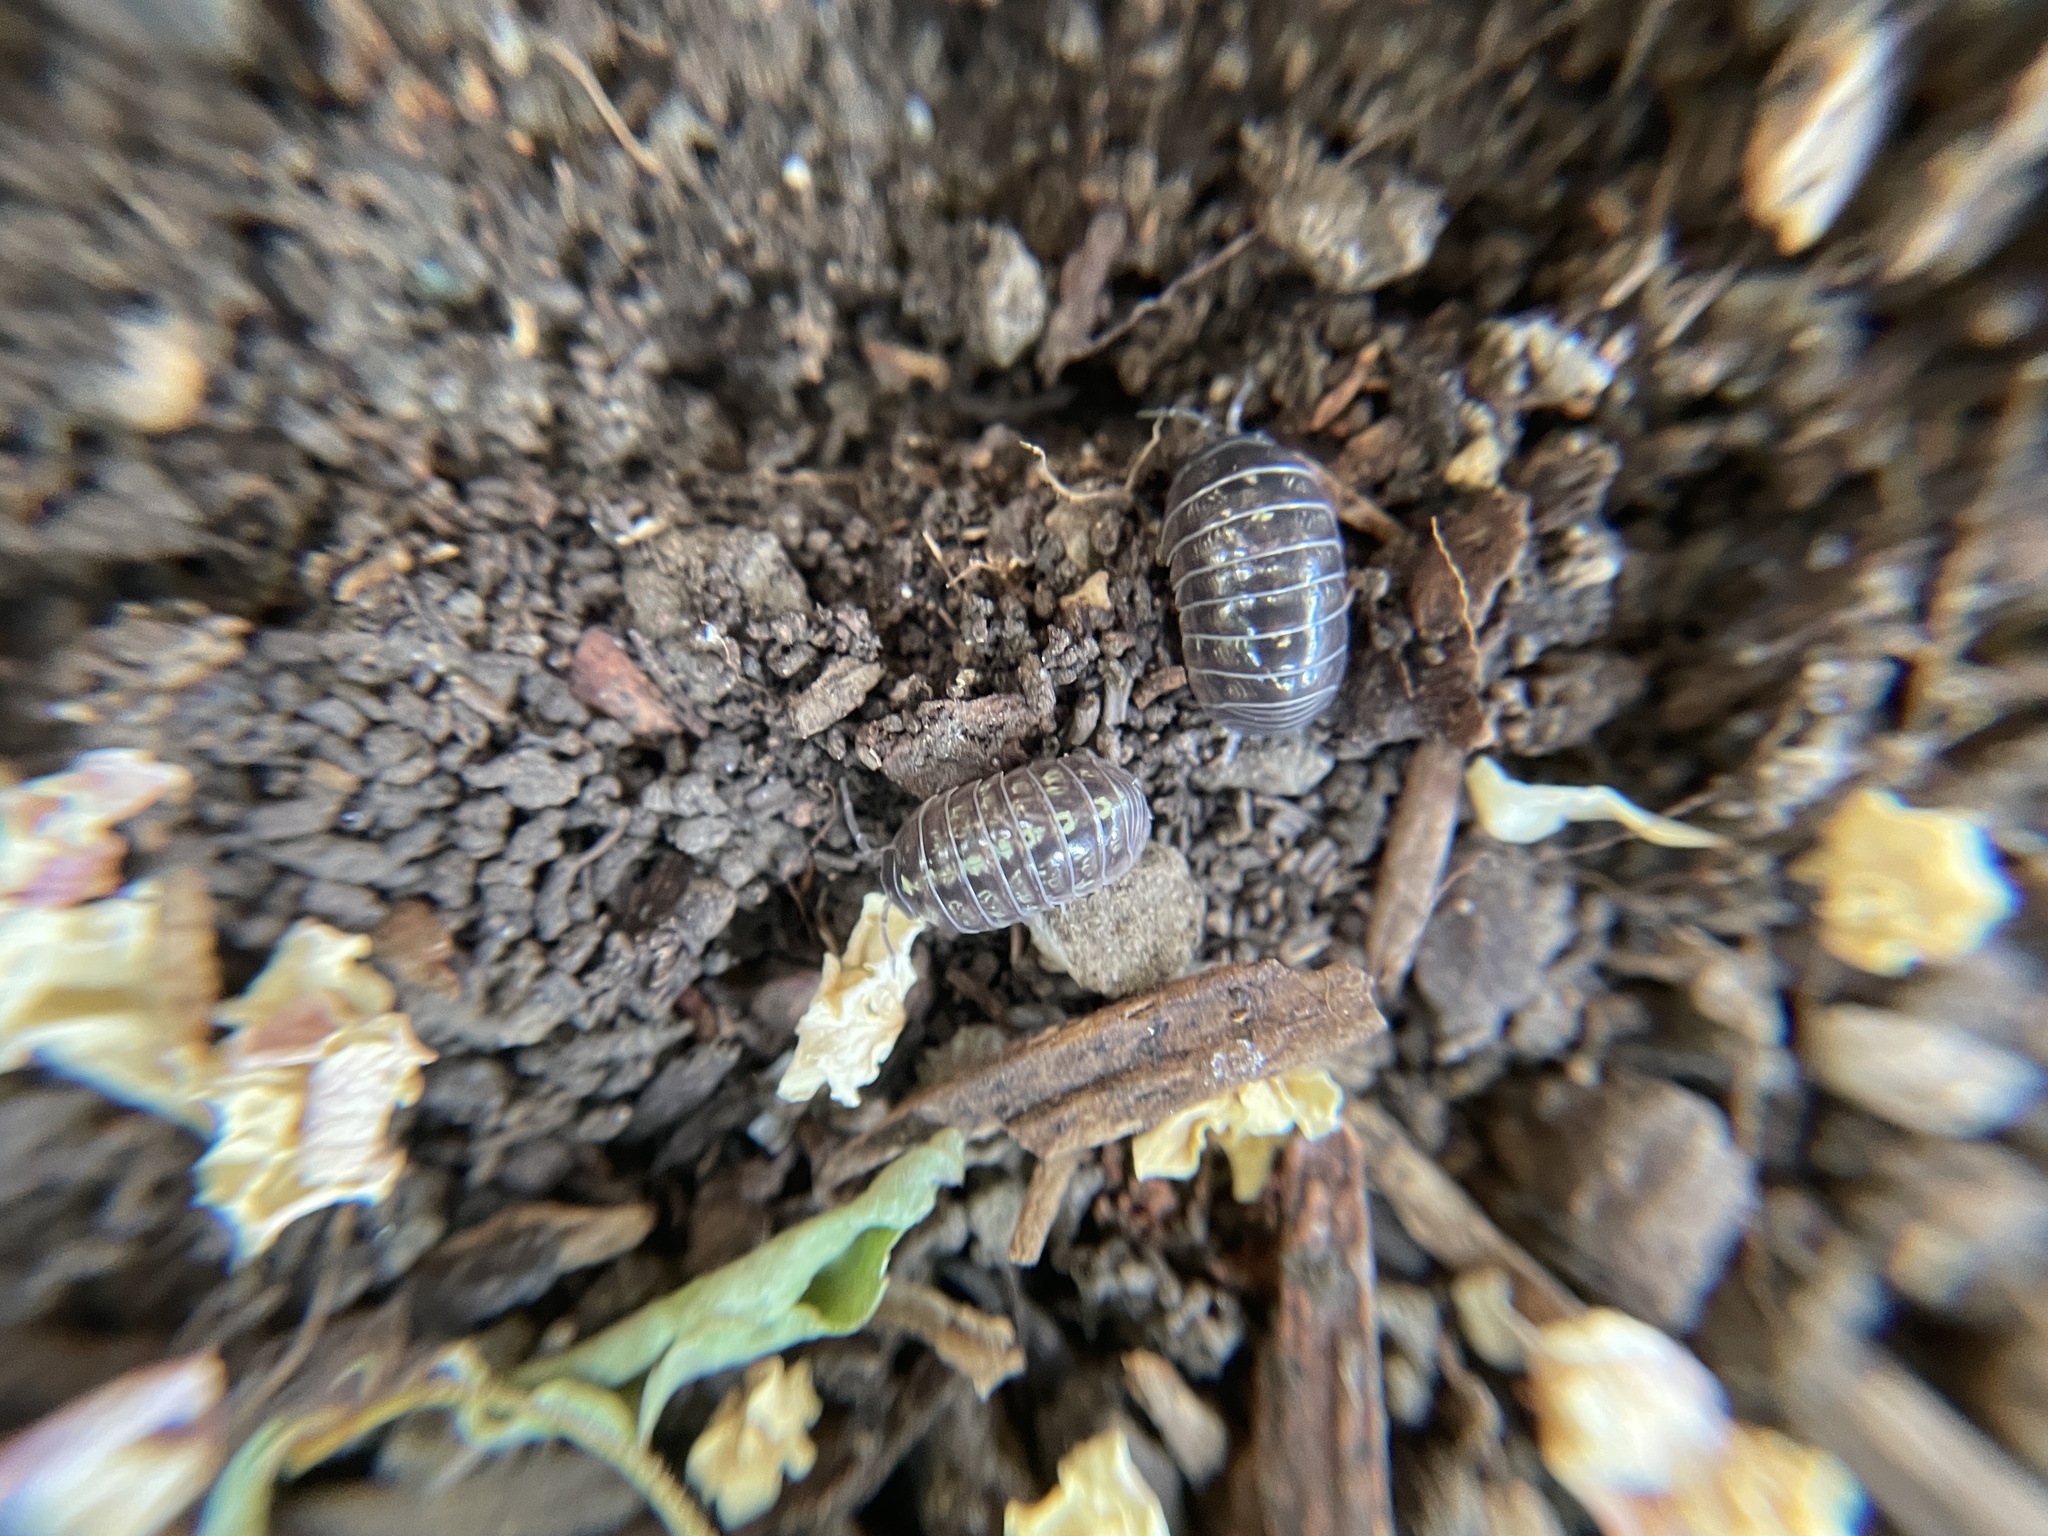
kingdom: Animalia
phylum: Arthropoda
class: Malacostraca
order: Isopoda
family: Armadillidiidae
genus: Armadillidium
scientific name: Armadillidium vulgare
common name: Common pill woodlouse
